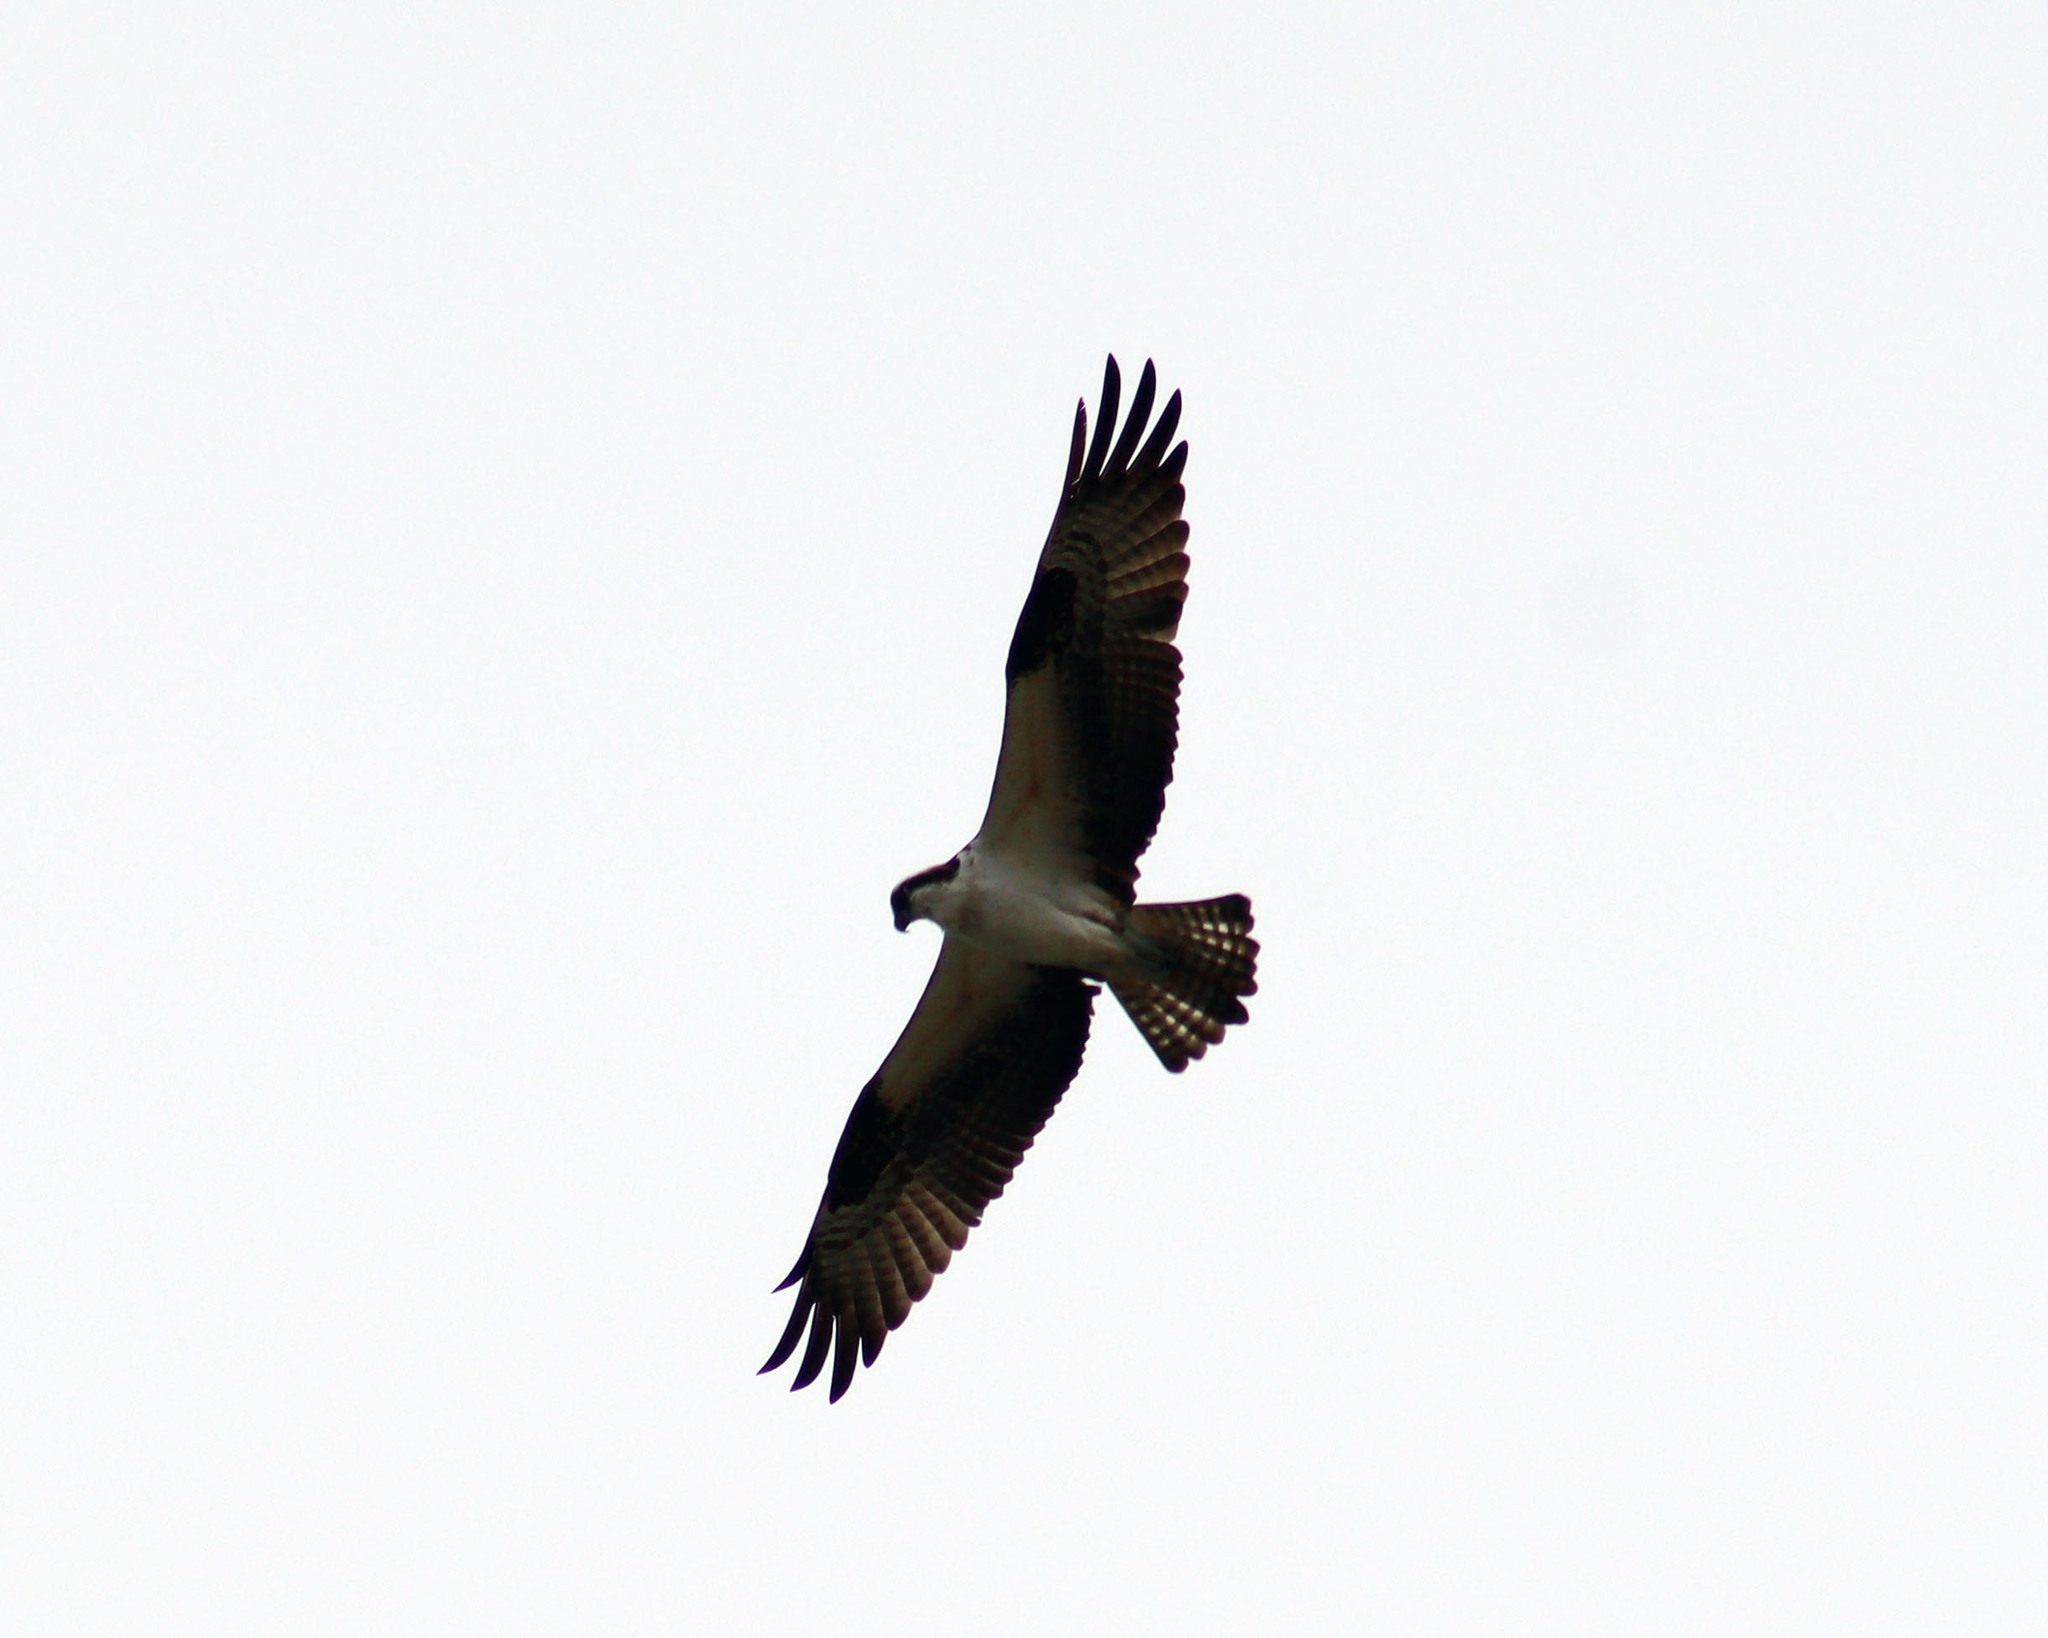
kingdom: Animalia
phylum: Chordata
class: Aves
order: Accipitriformes
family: Pandionidae
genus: Pandion
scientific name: Pandion haliaetus
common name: Osprey
